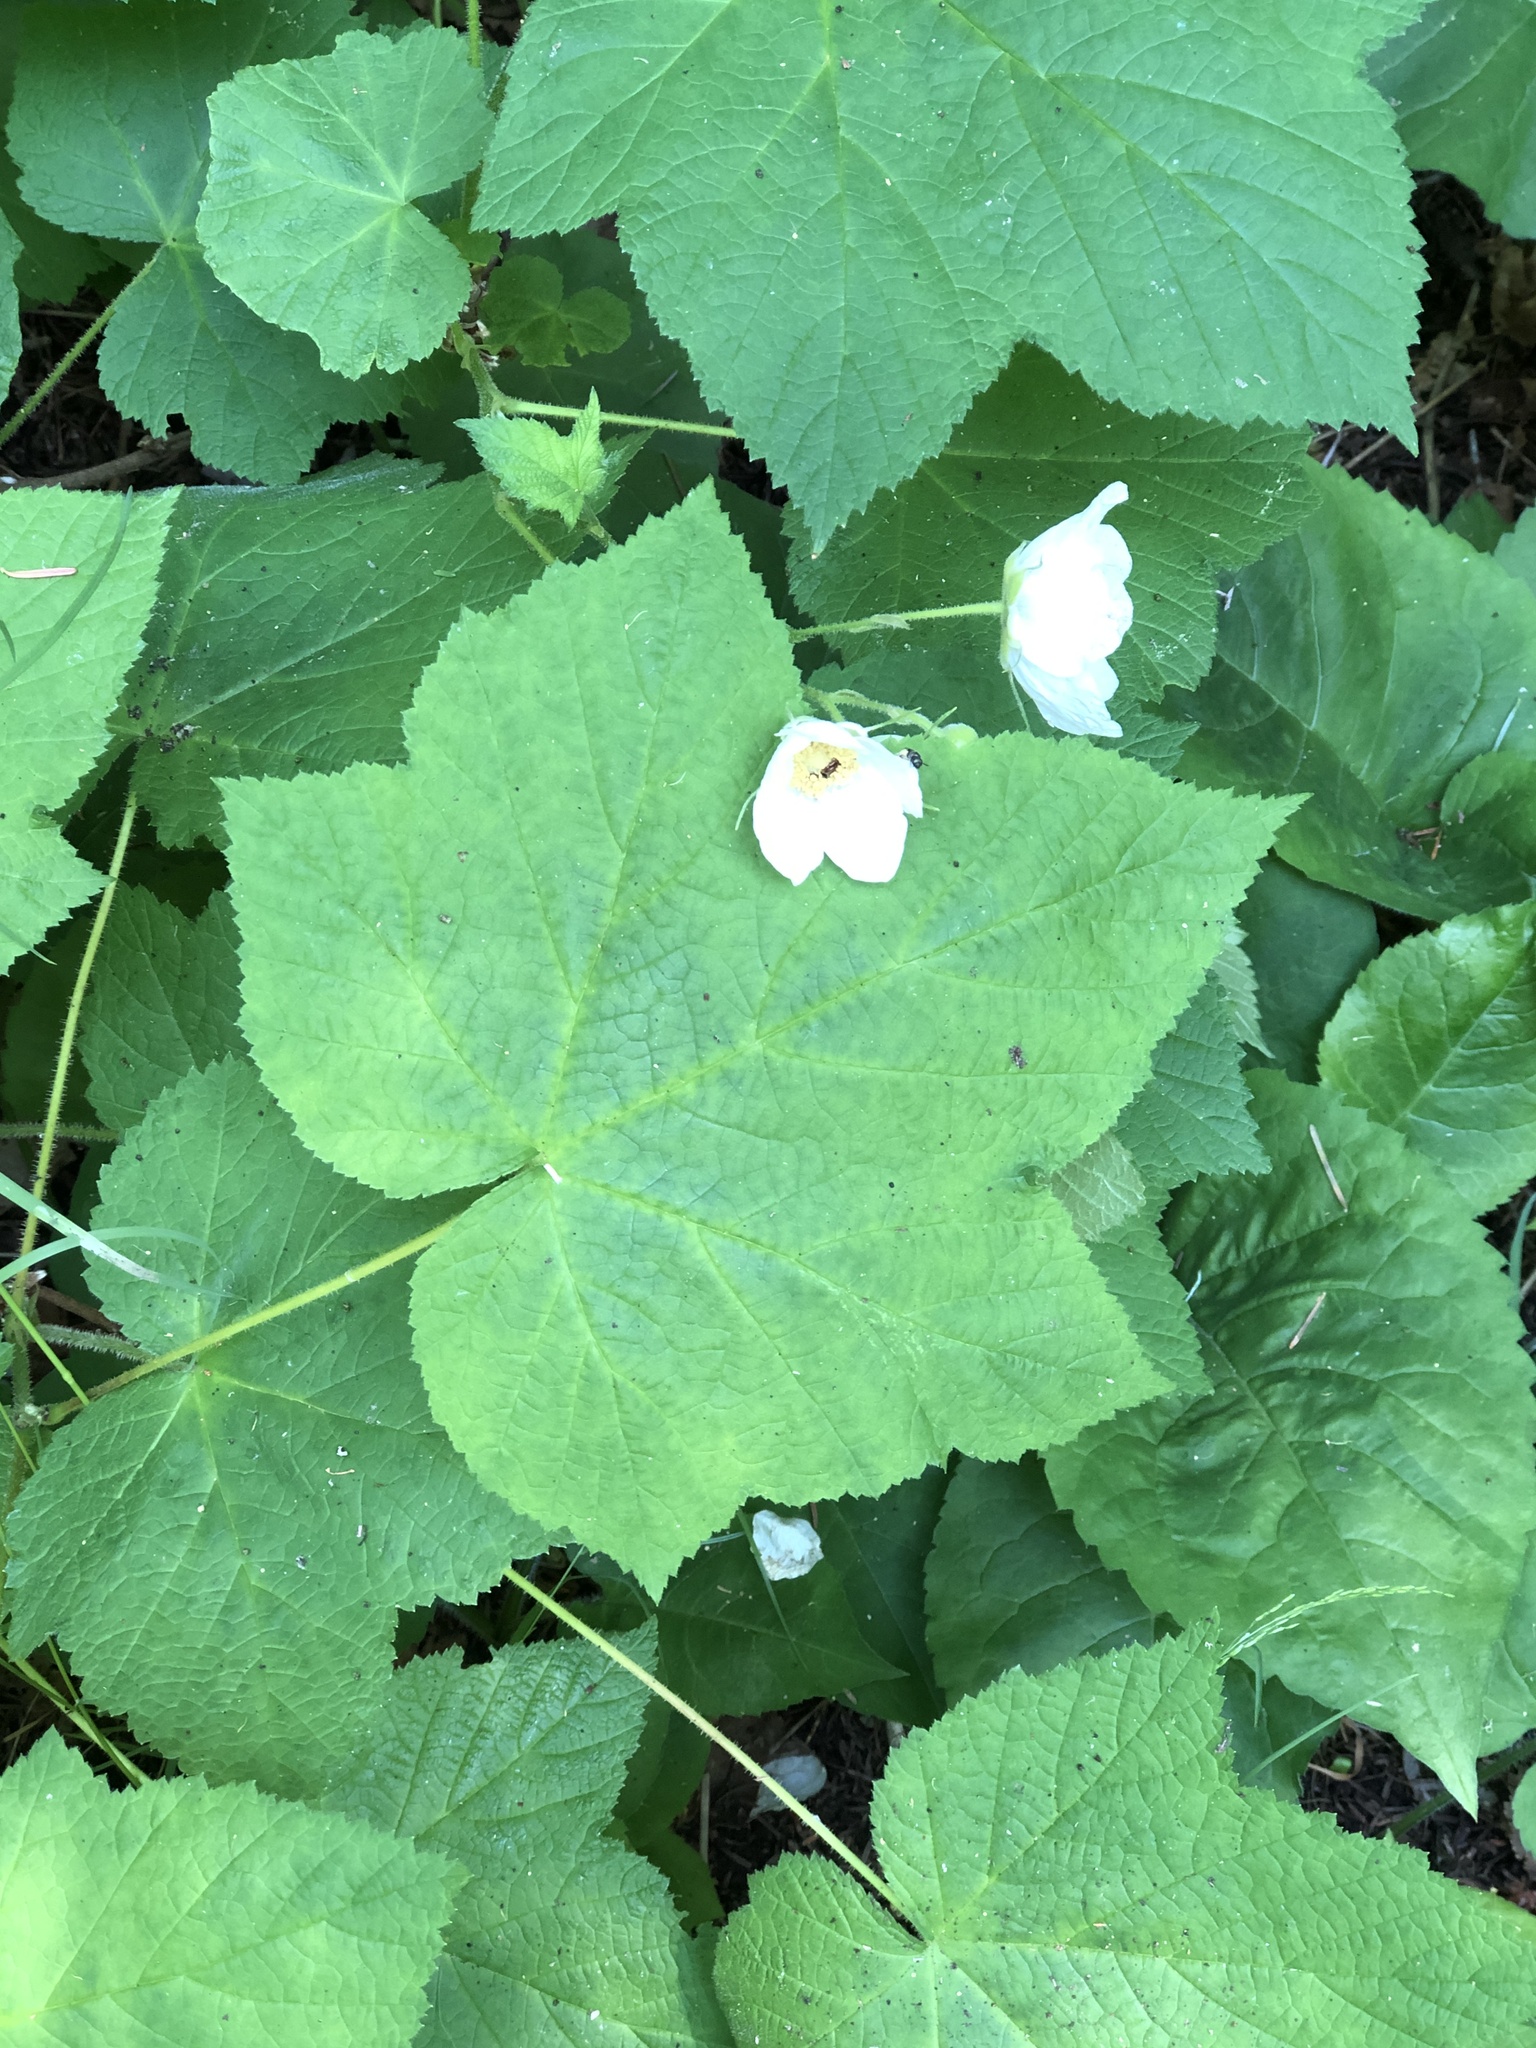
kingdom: Plantae
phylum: Tracheophyta
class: Magnoliopsida
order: Rosales
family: Rosaceae
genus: Rubus
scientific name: Rubus parviflorus
